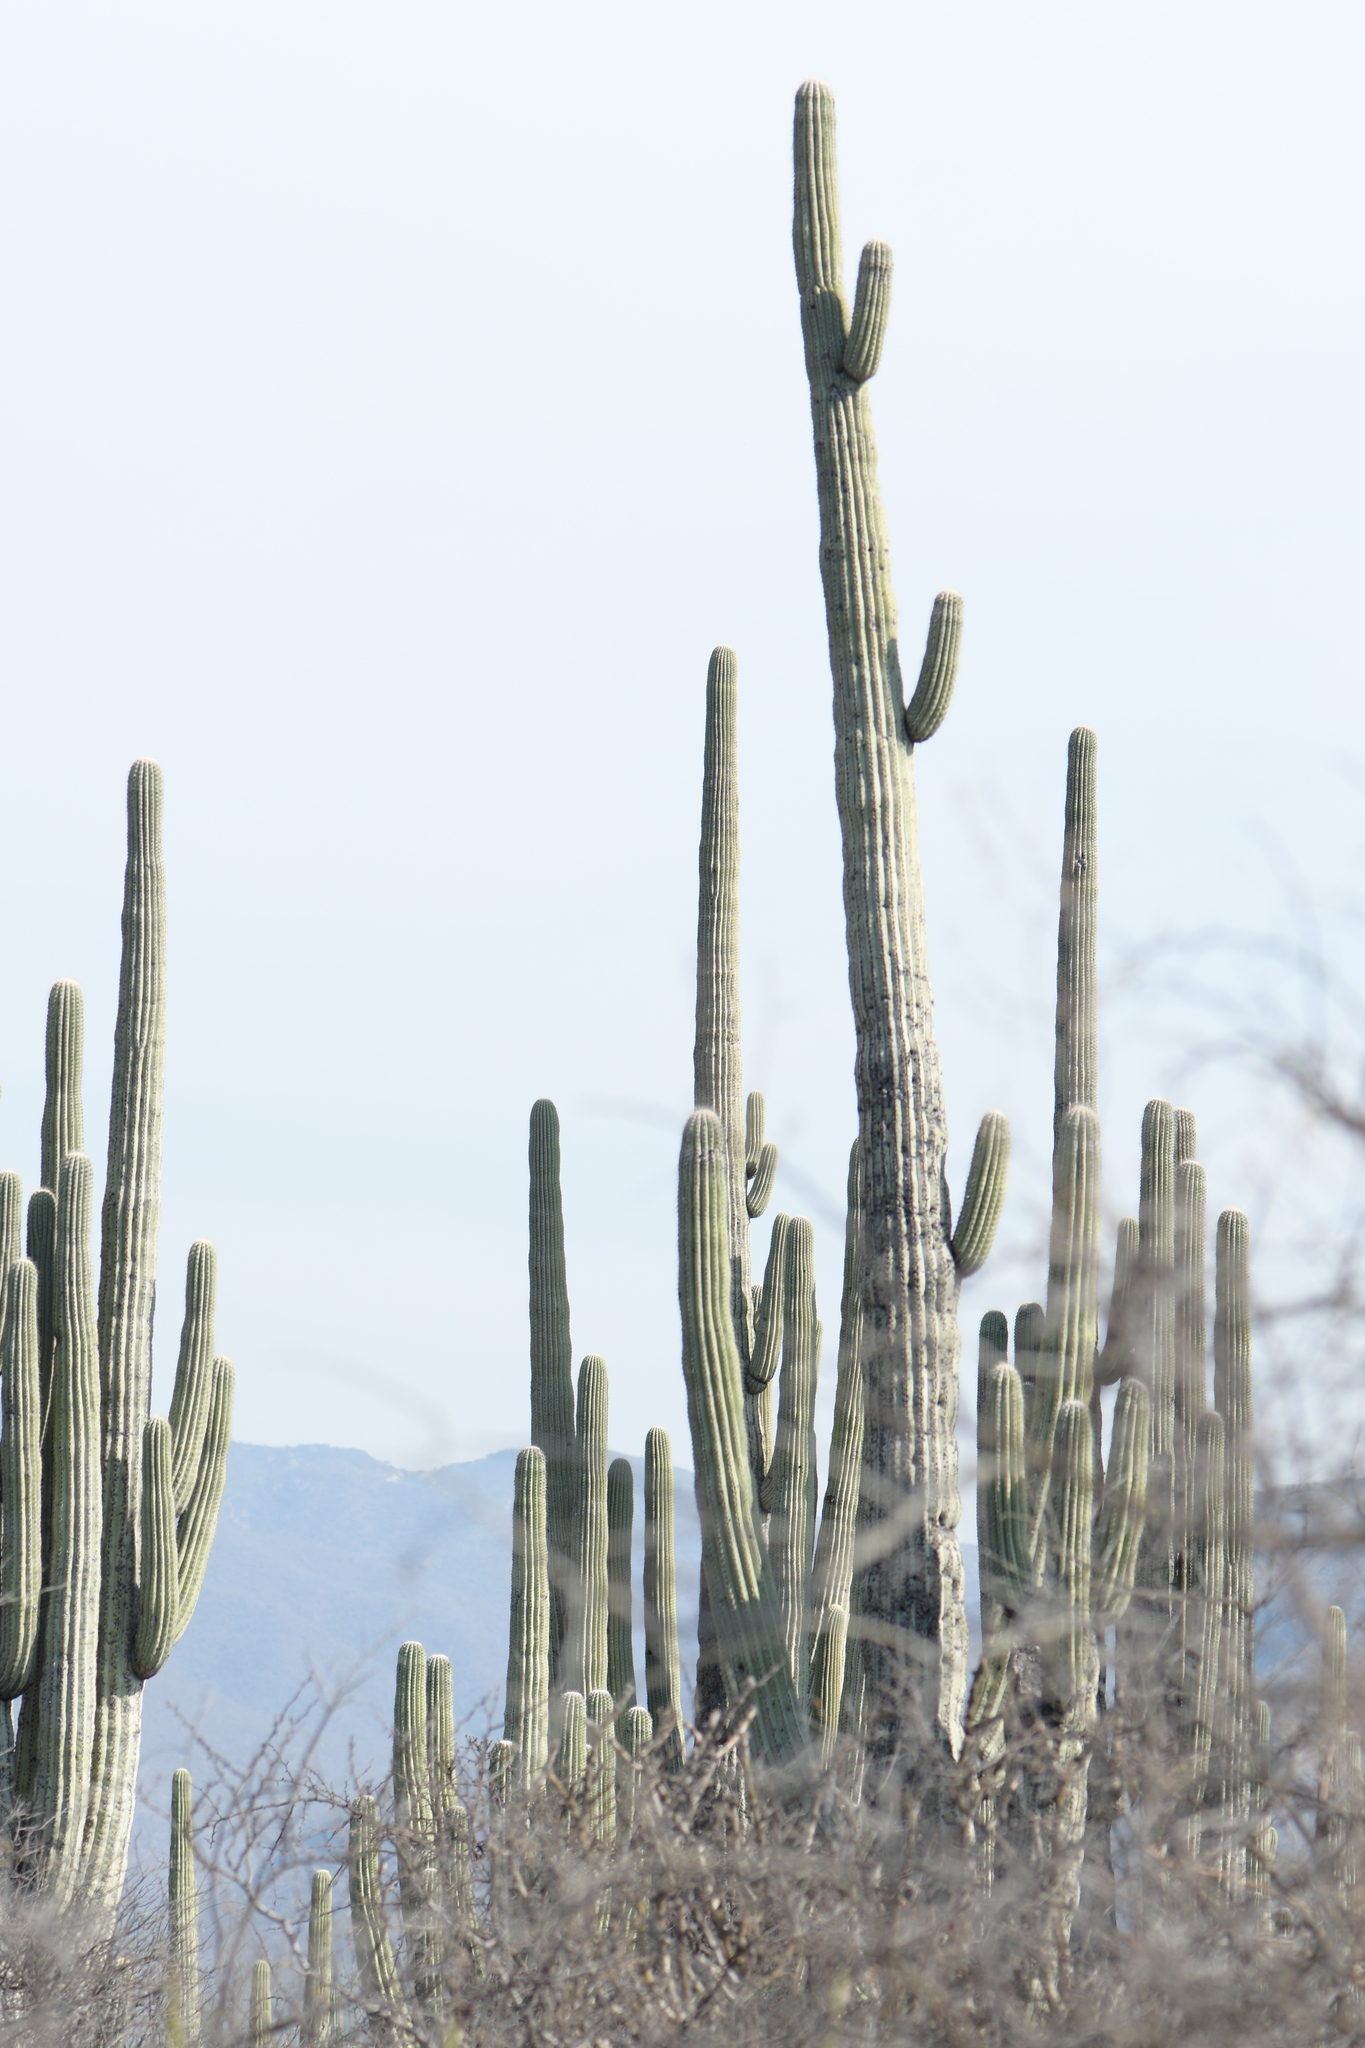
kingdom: Plantae
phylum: Tracheophyta
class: Magnoliopsida
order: Caryophyllales
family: Cactaceae
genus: Cephalocereus
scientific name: Cephalocereus tetetzo
